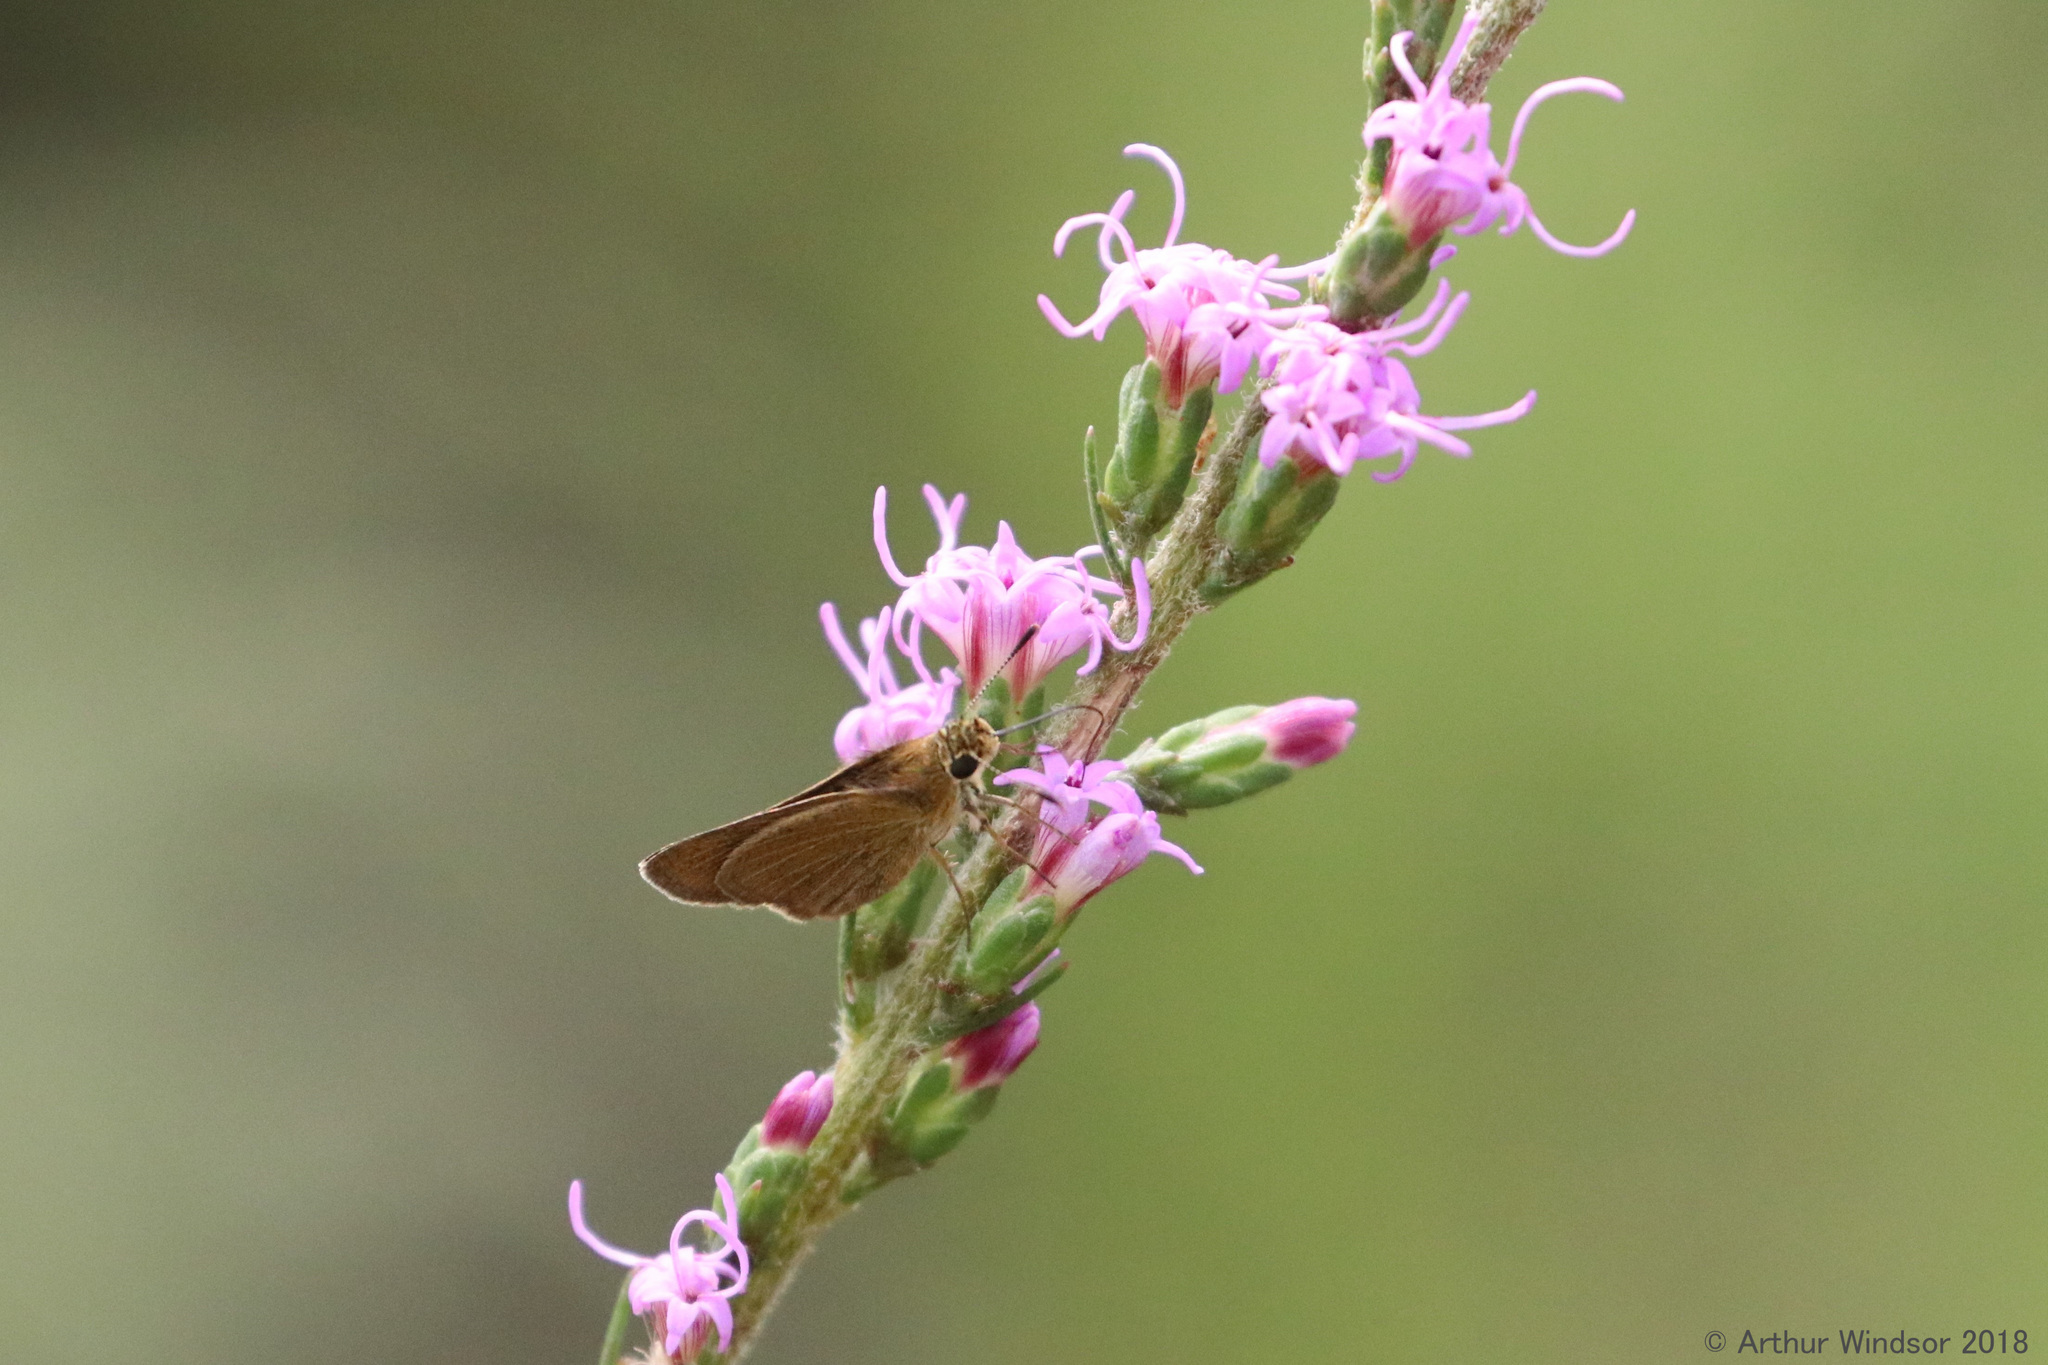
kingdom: Animalia
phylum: Arthropoda
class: Insecta
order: Lepidoptera
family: Hesperiidae
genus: Nastra
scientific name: Nastra lherminier
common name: Swarthy skipper
